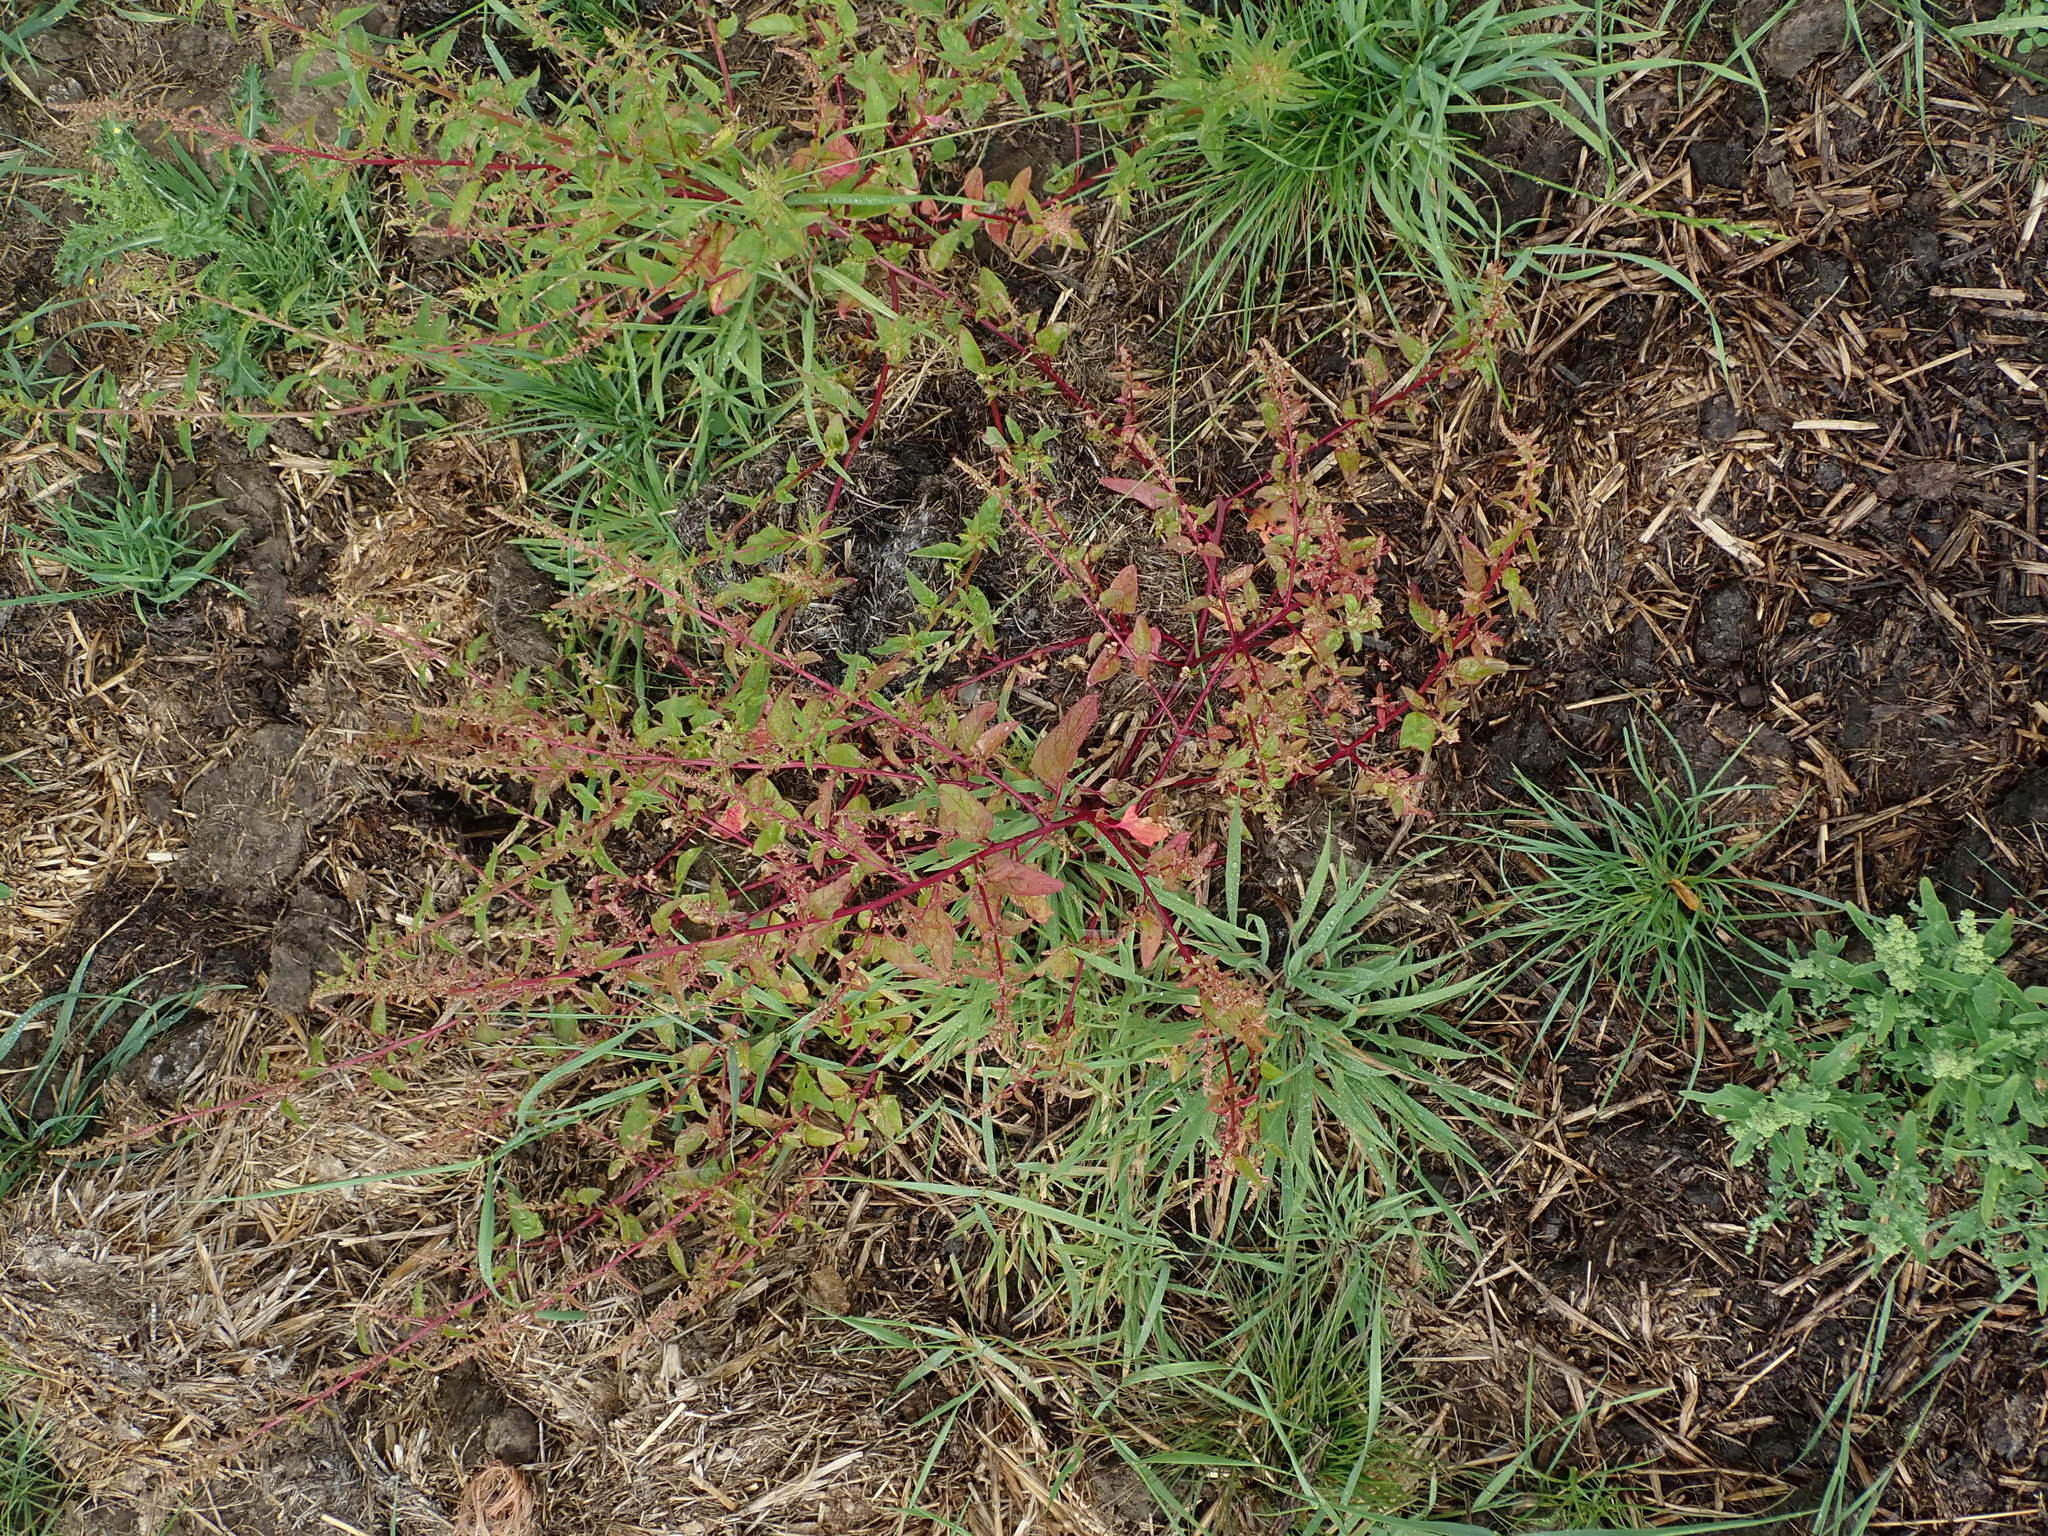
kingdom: Plantae
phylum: Tracheophyta
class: Magnoliopsida
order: Caryophyllales
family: Amaranthaceae
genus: Lipandra
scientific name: Lipandra polysperma
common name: Many-seed goosefoot
